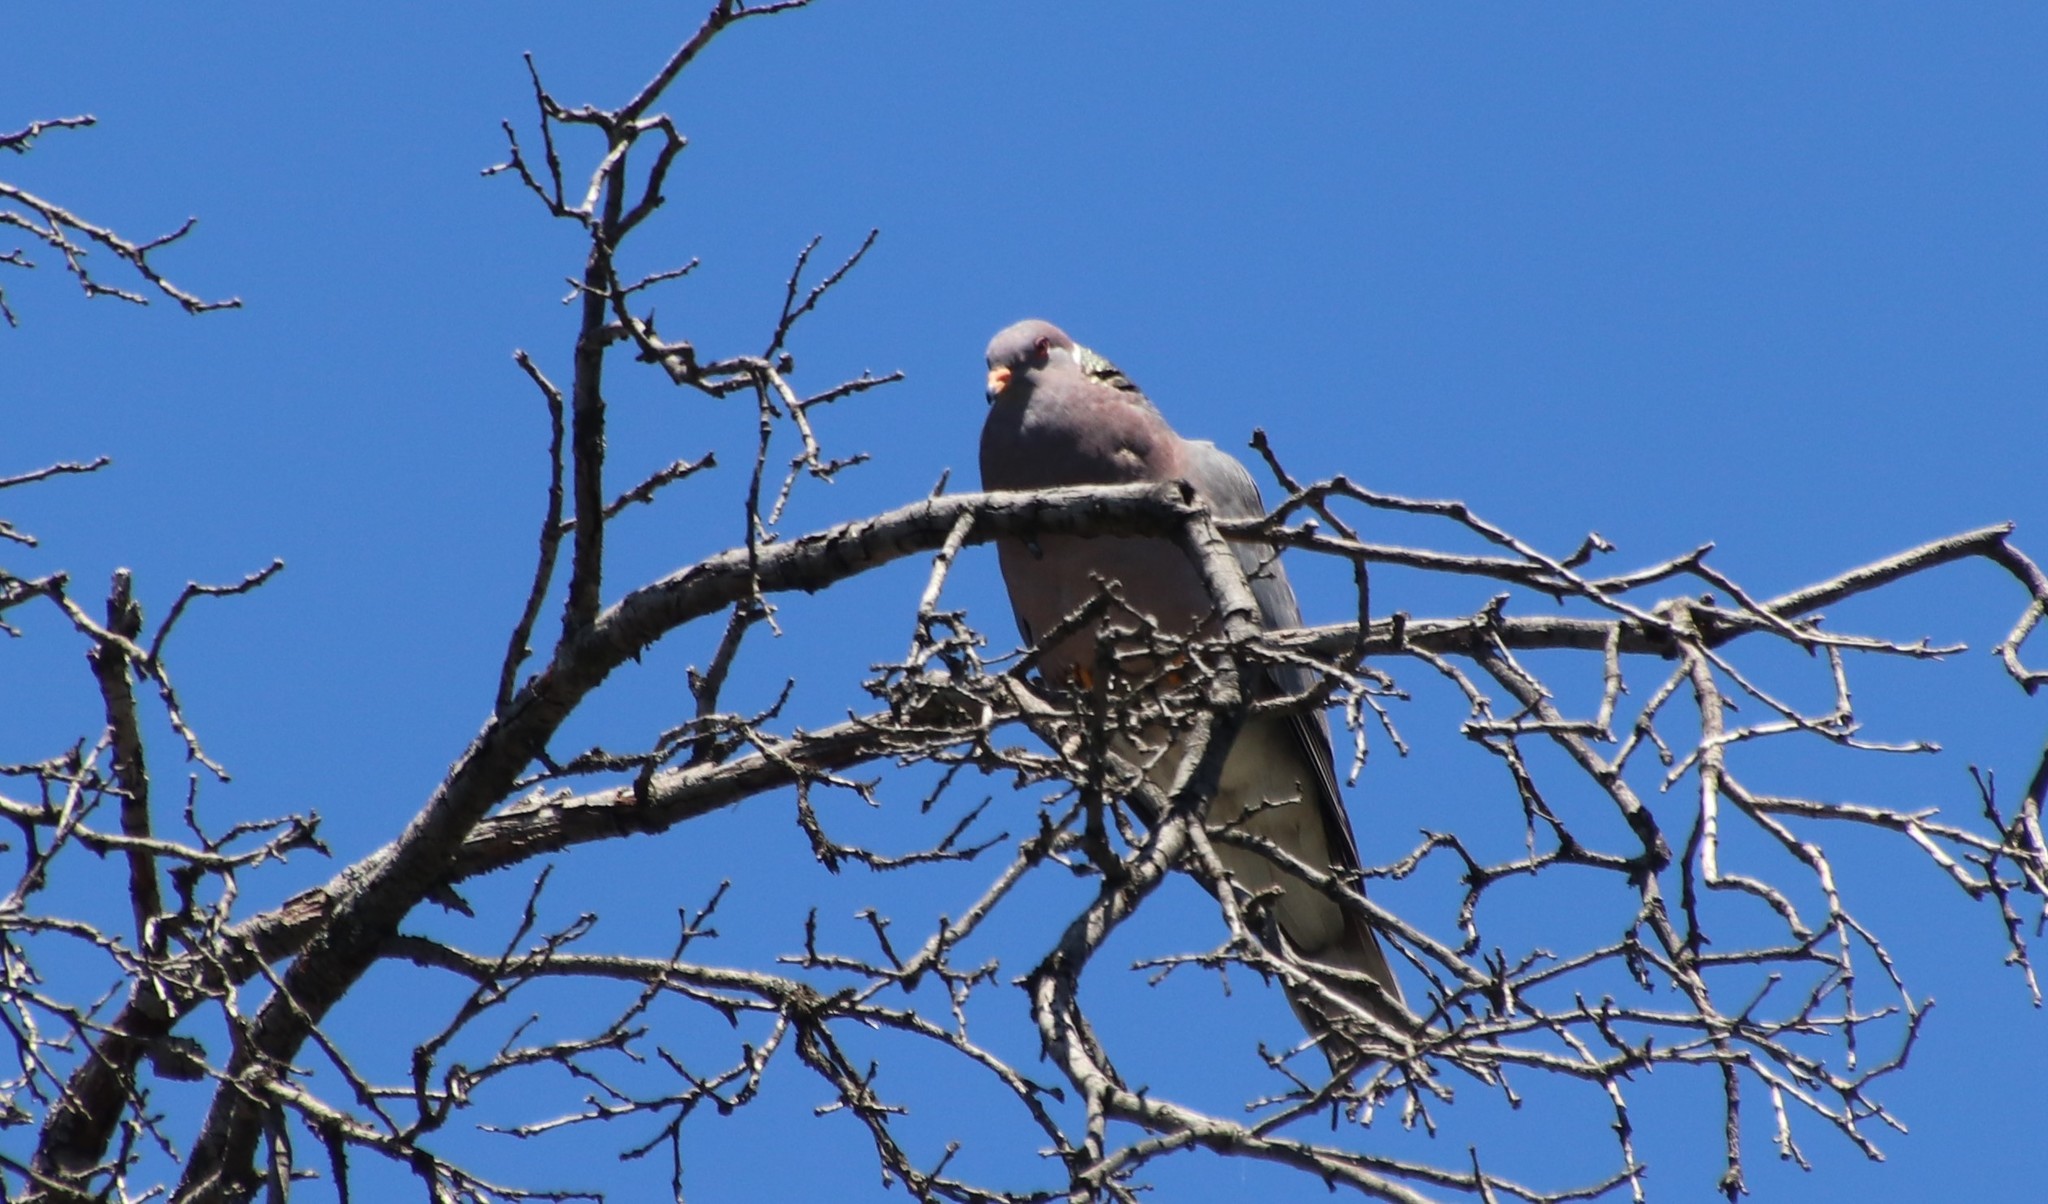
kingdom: Animalia
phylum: Chordata
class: Aves
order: Columbiformes
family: Columbidae
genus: Patagioenas
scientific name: Patagioenas fasciata
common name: Band-tailed pigeon
